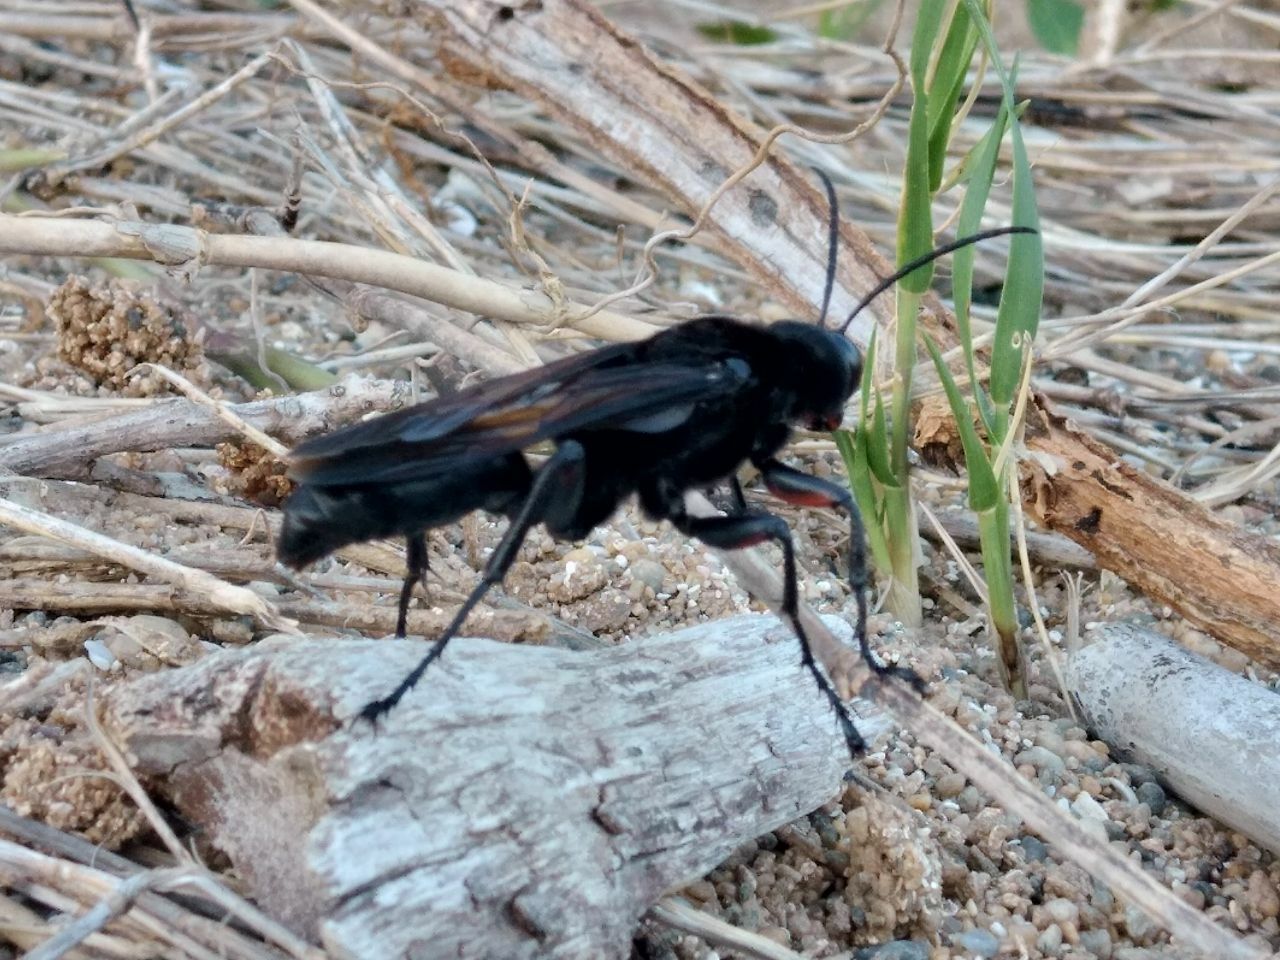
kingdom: Animalia
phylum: Arthropoda
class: Insecta
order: Hymenoptera
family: Sphecidae
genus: Sphex
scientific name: Sphex ingens
